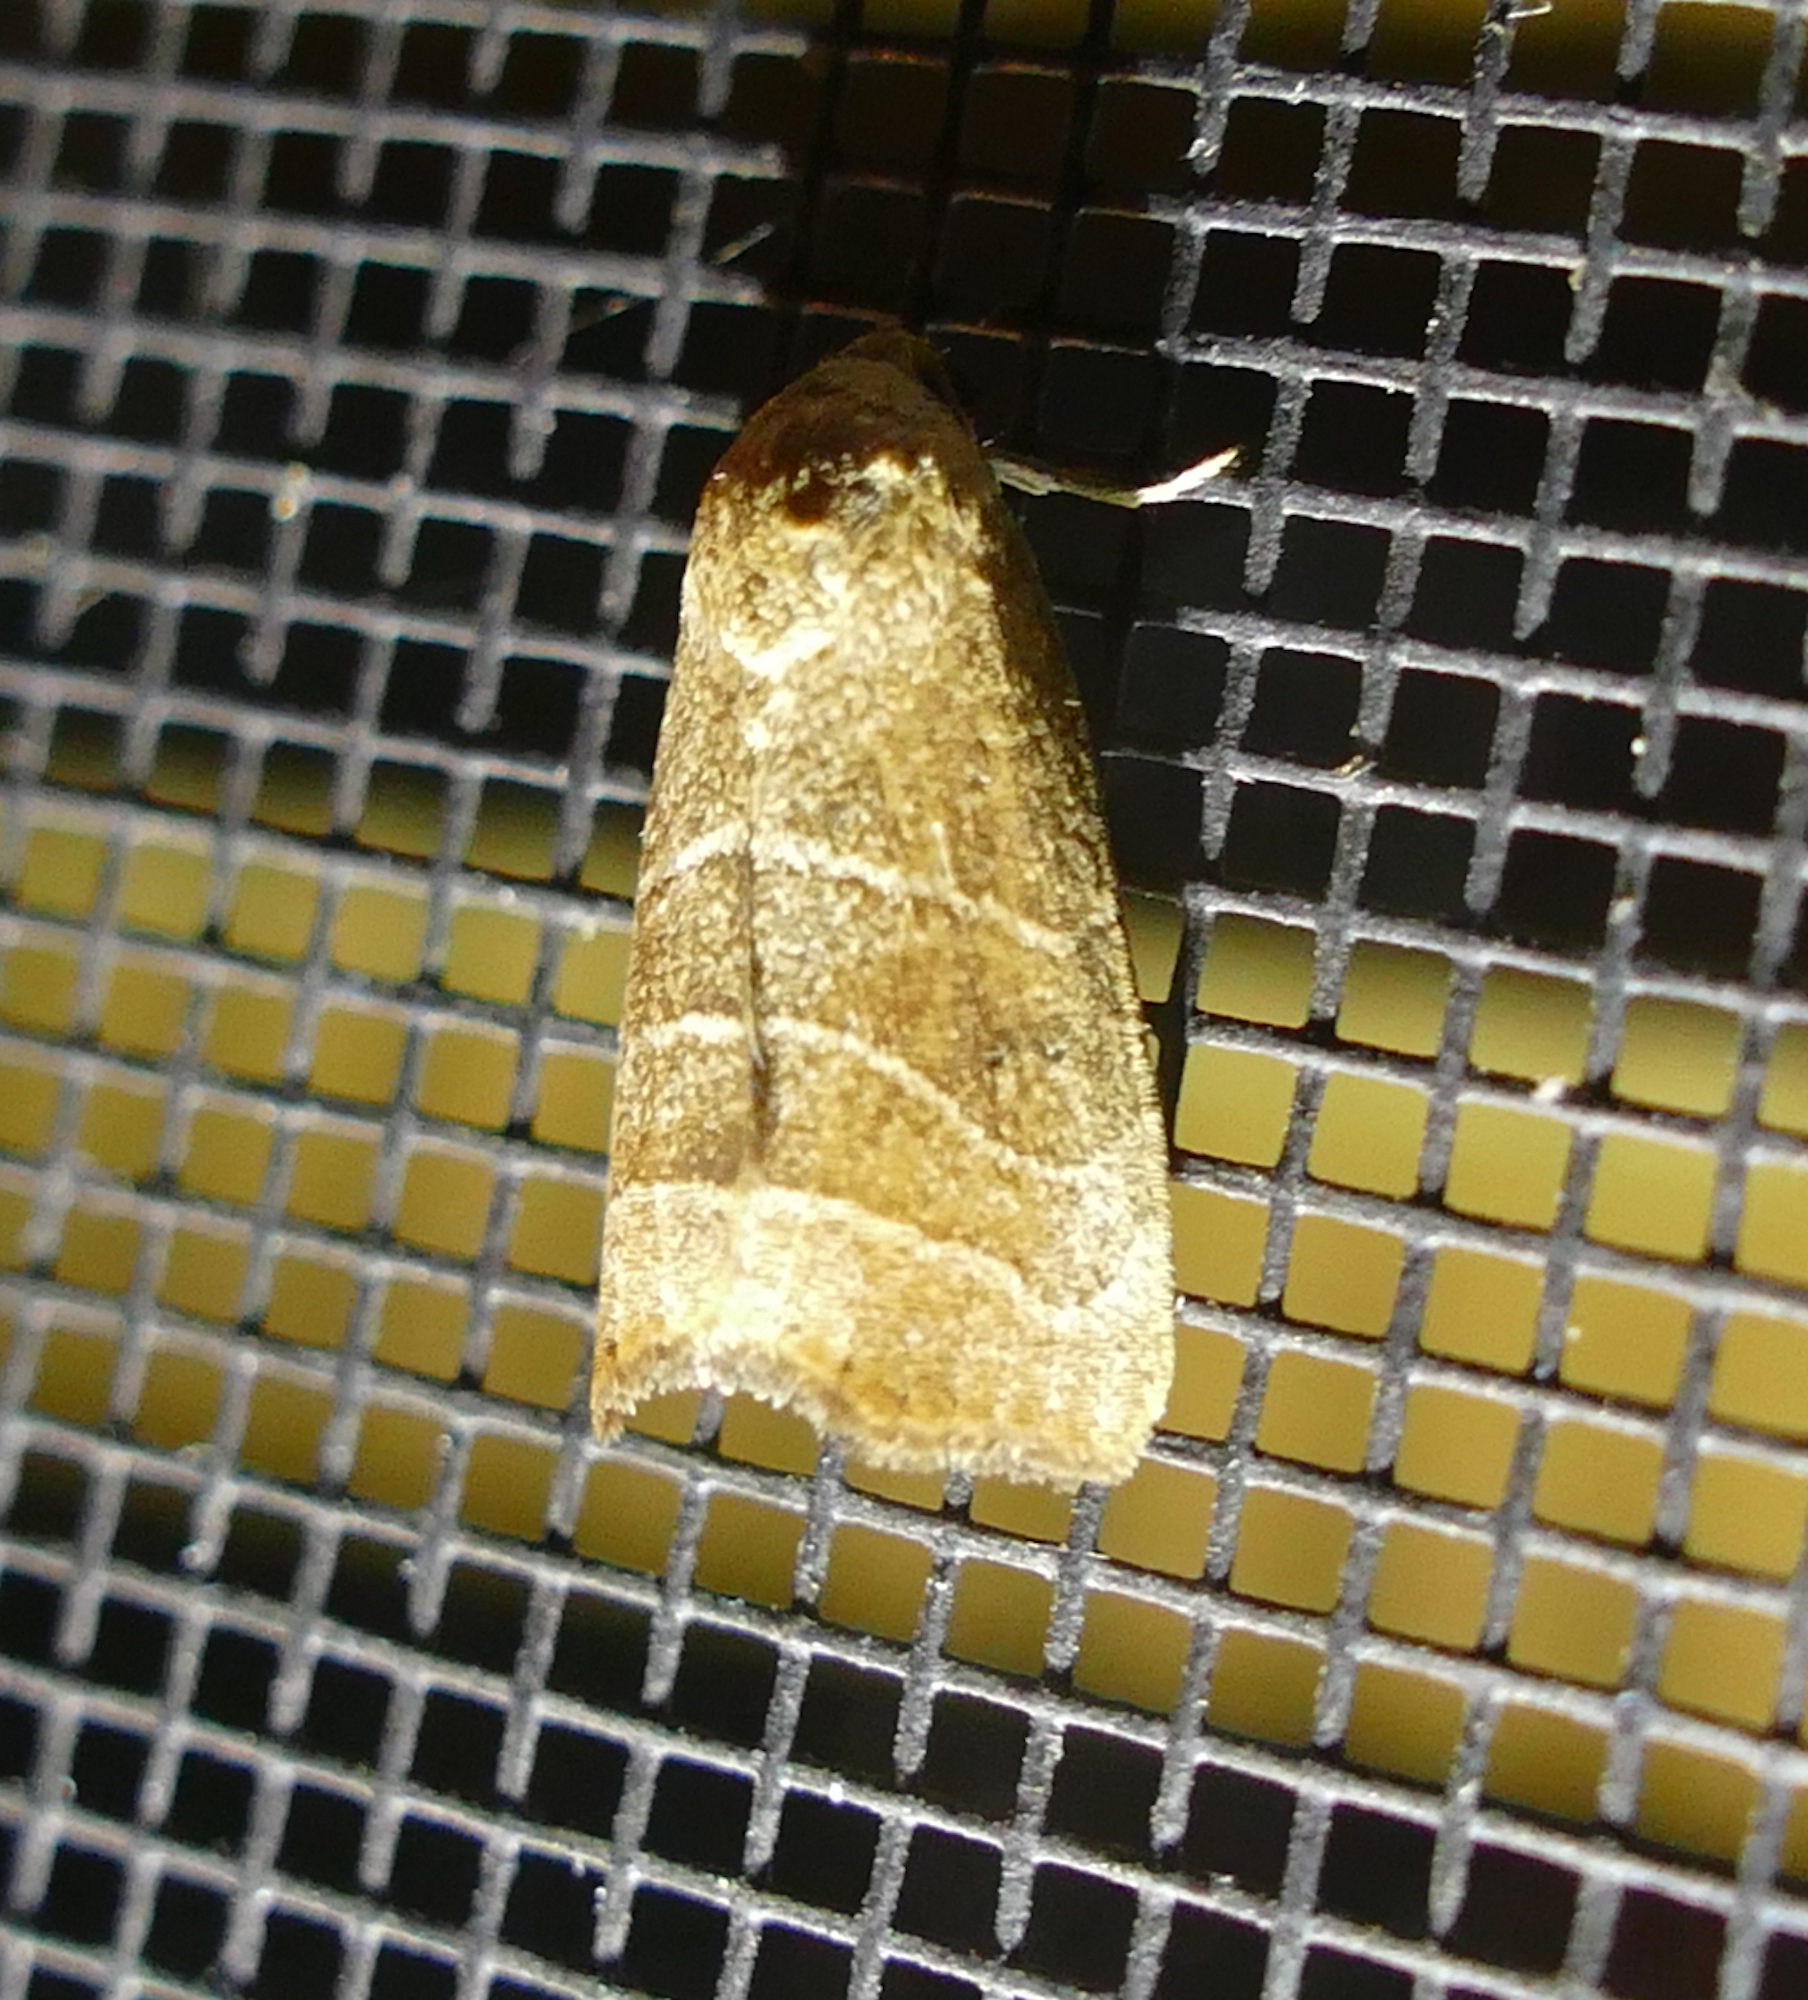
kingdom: Animalia
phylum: Arthropoda
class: Insecta
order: Lepidoptera
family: Noctuidae
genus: Bagisara
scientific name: Bagisara repanda
